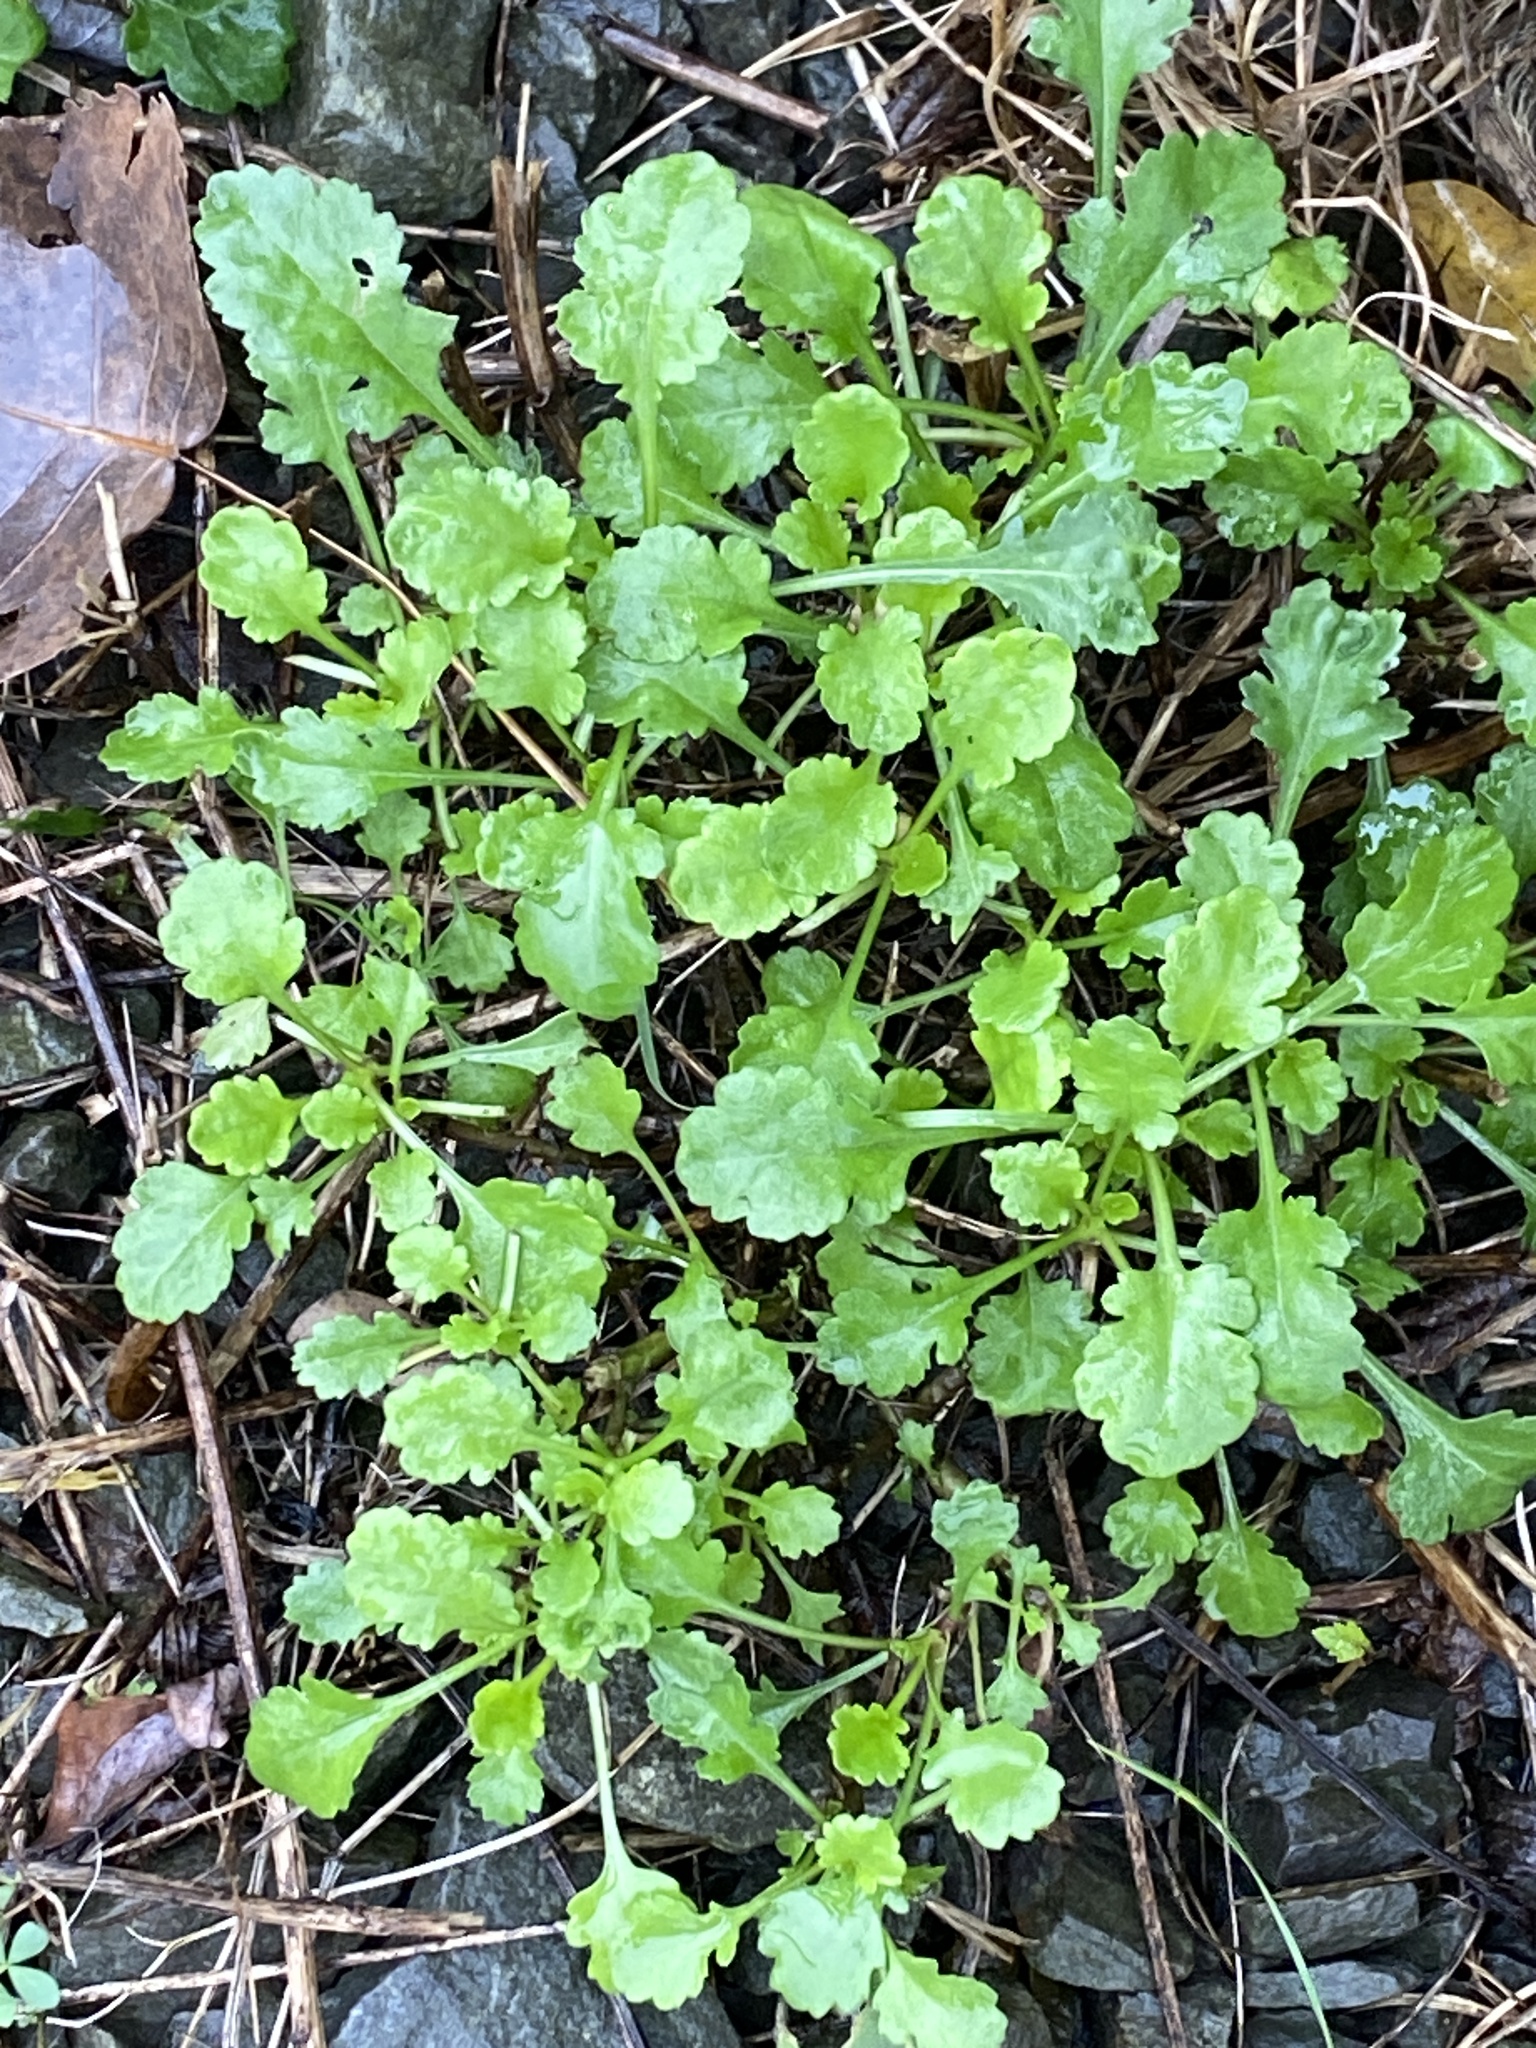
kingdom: Plantae
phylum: Tracheophyta
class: Magnoliopsida
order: Asterales
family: Asteraceae
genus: Leucanthemum
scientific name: Leucanthemum vulgare
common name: Oxeye daisy
